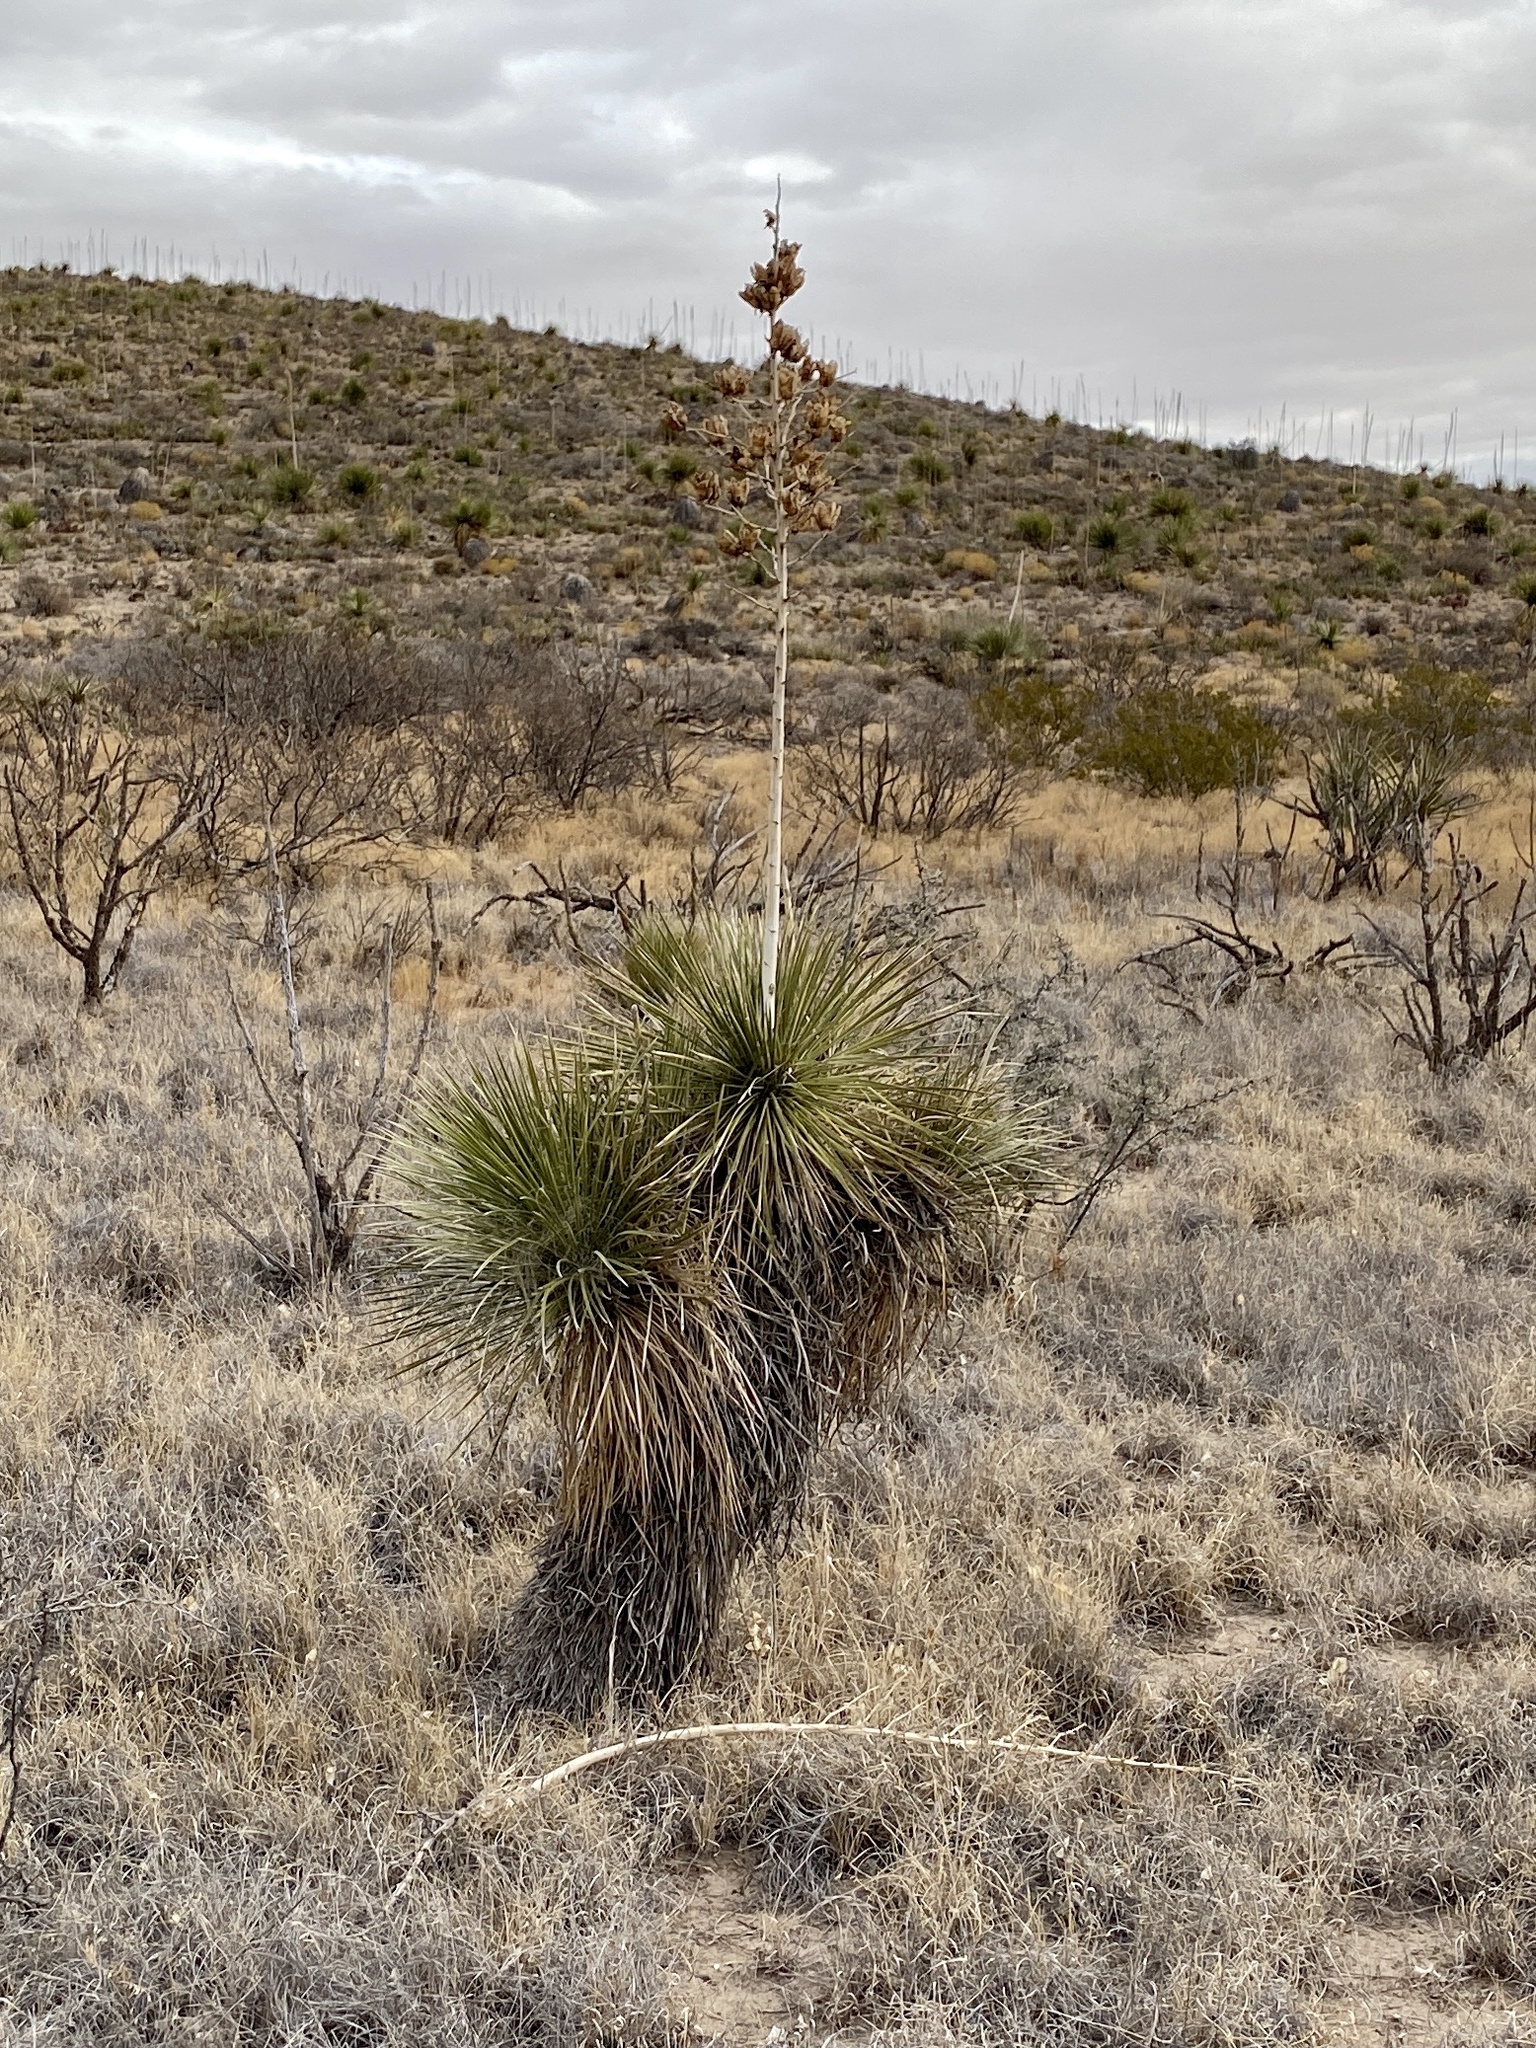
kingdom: Plantae
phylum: Tracheophyta
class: Liliopsida
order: Asparagales
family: Asparagaceae
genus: Yucca
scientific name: Yucca elata
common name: Palmella
